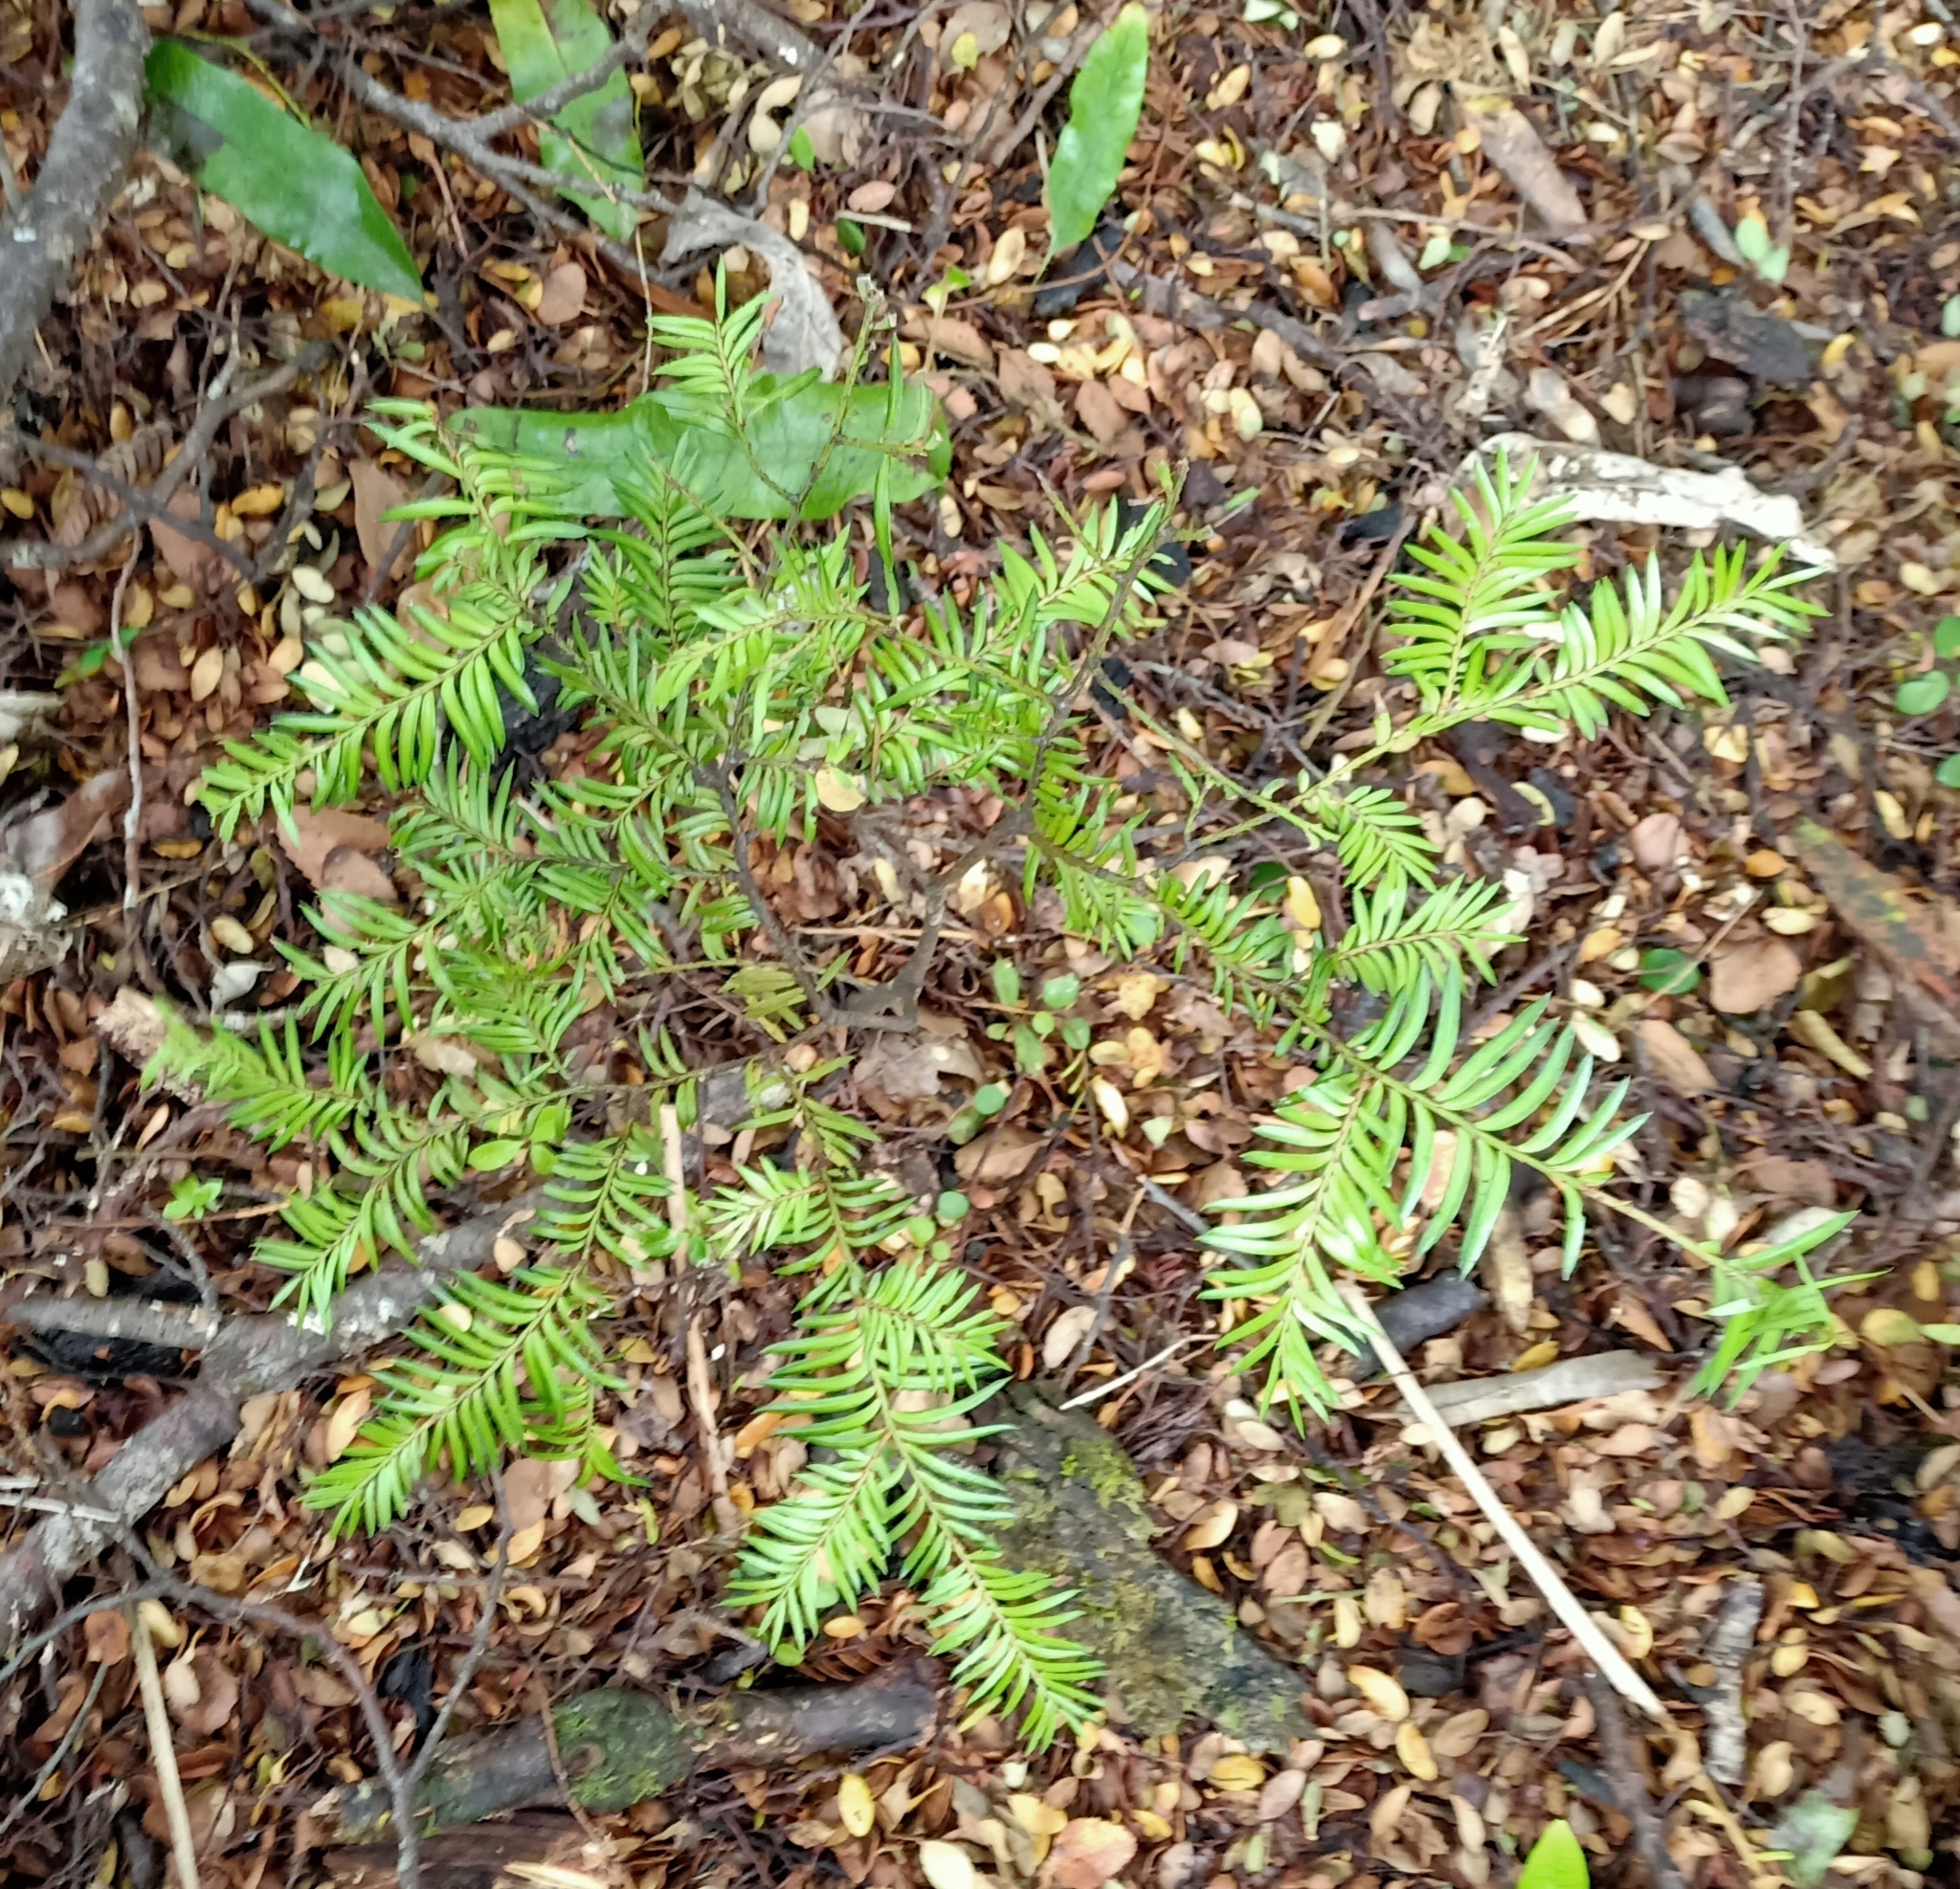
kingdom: Plantae
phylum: Tracheophyta
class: Pinopsida
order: Pinales
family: Podocarpaceae
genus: Prumnopitys
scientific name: Prumnopitys ferruginea
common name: Brown pine
